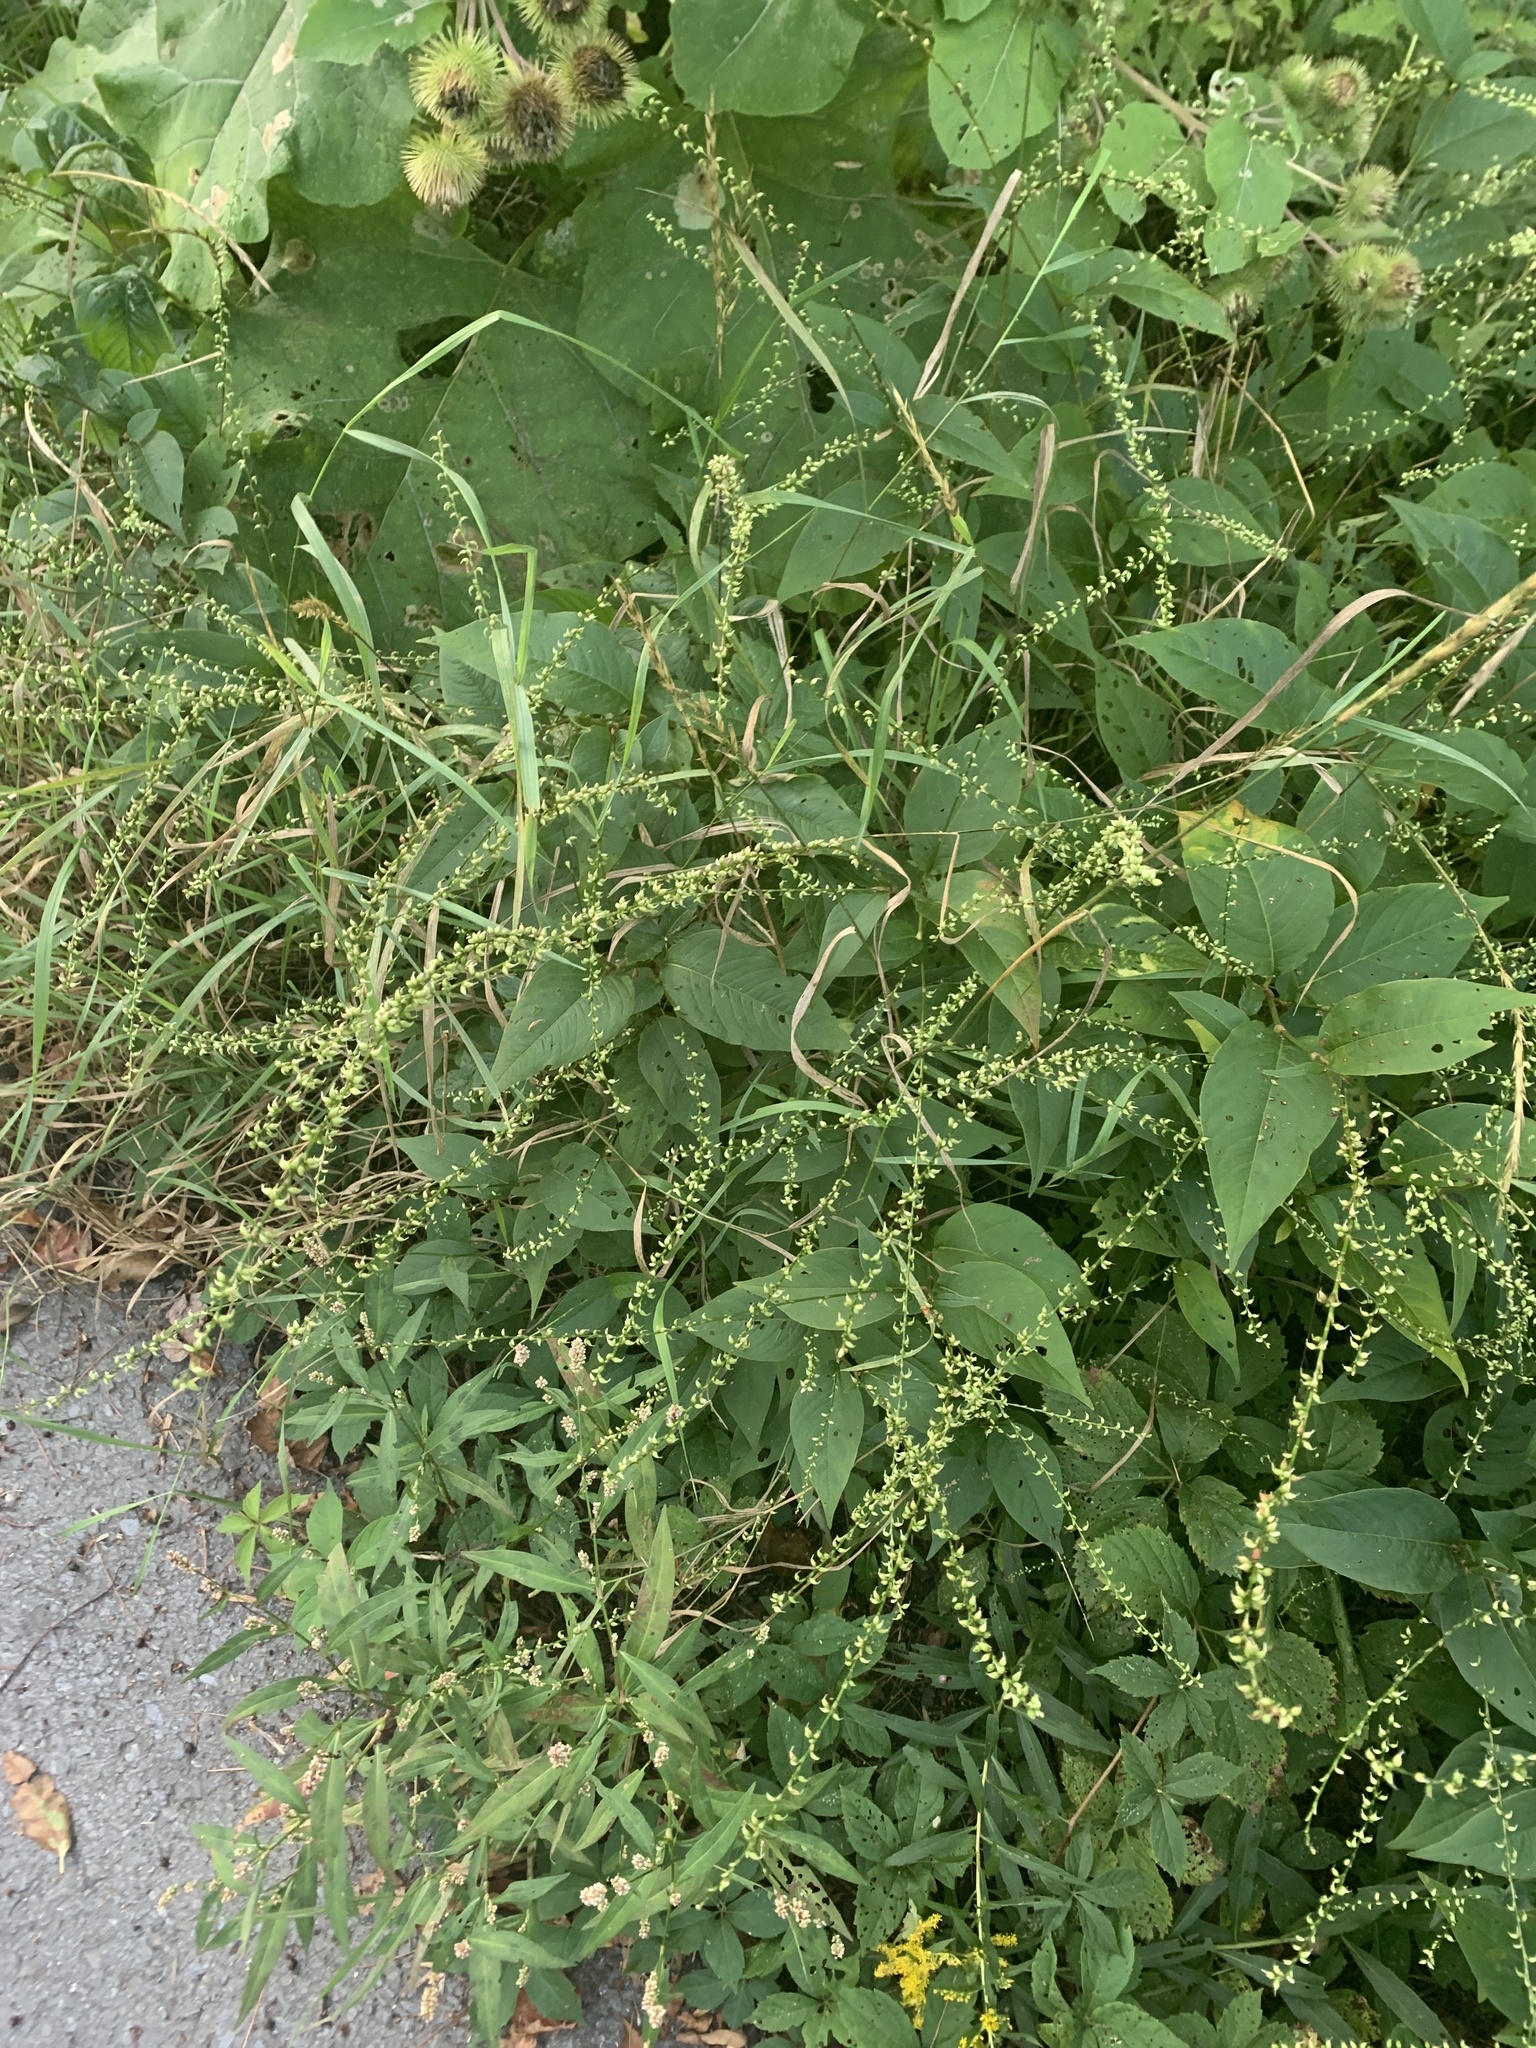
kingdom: Plantae
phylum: Tracheophyta
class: Magnoliopsida
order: Caryophyllales
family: Polygonaceae
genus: Persicaria
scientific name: Persicaria virginiana
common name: Jumpseed
